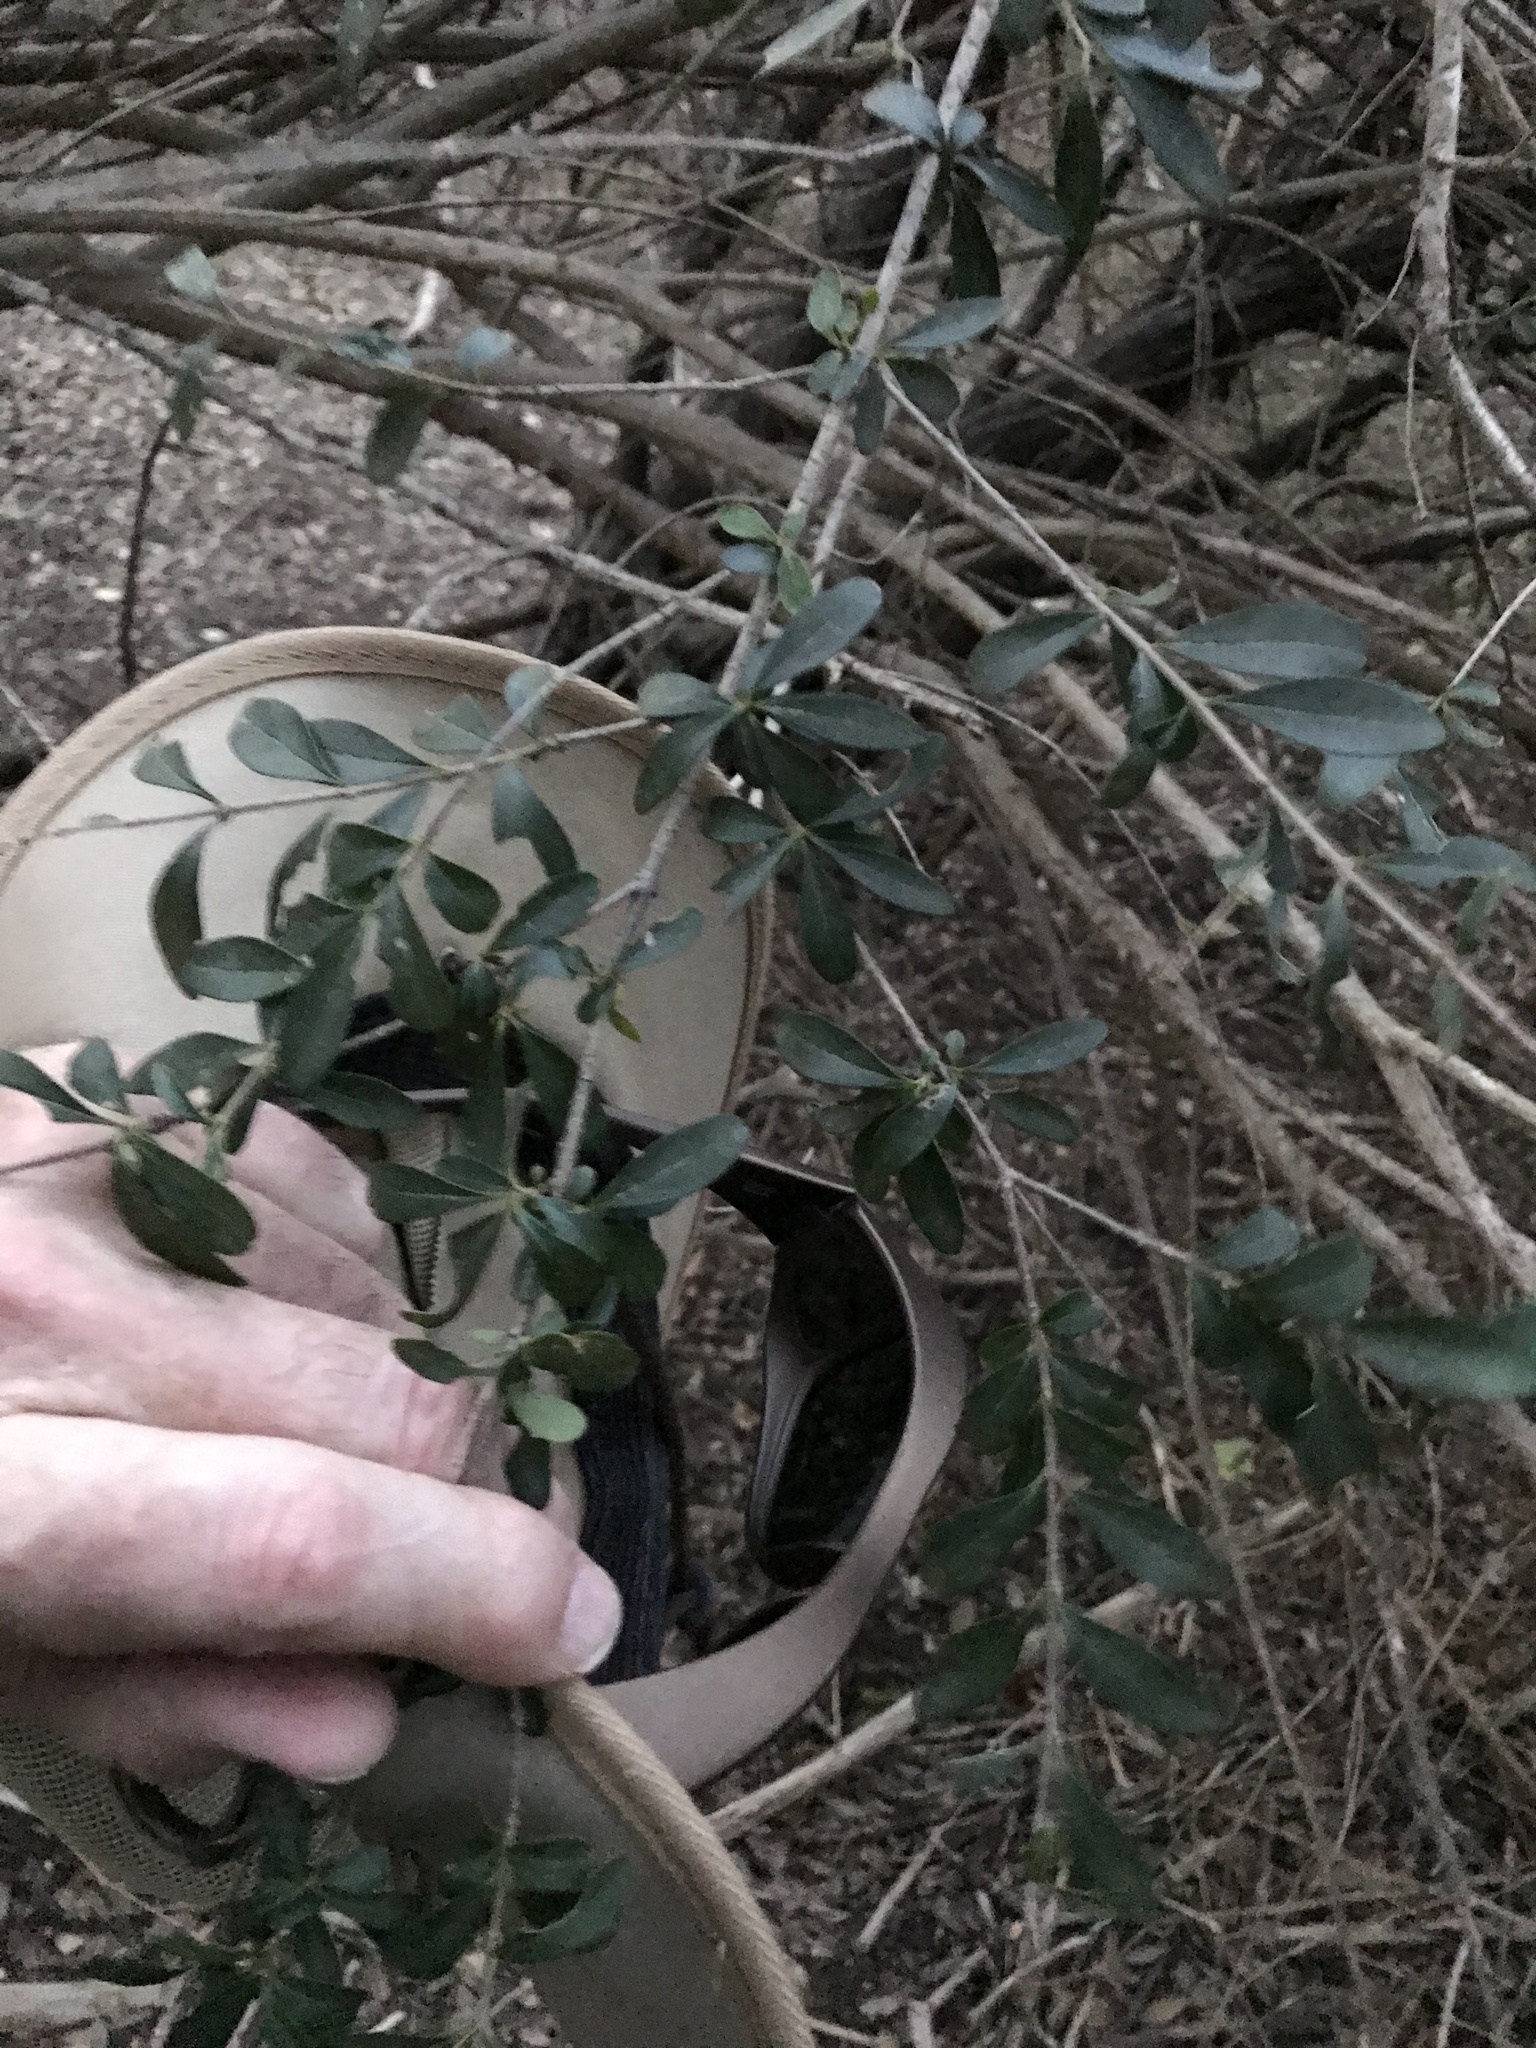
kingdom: Plantae
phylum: Tracheophyta
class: Magnoliopsida
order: Lamiales
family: Oleaceae
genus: Ligustrum
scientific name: Ligustrum quihoui
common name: Waxyleaf privet
